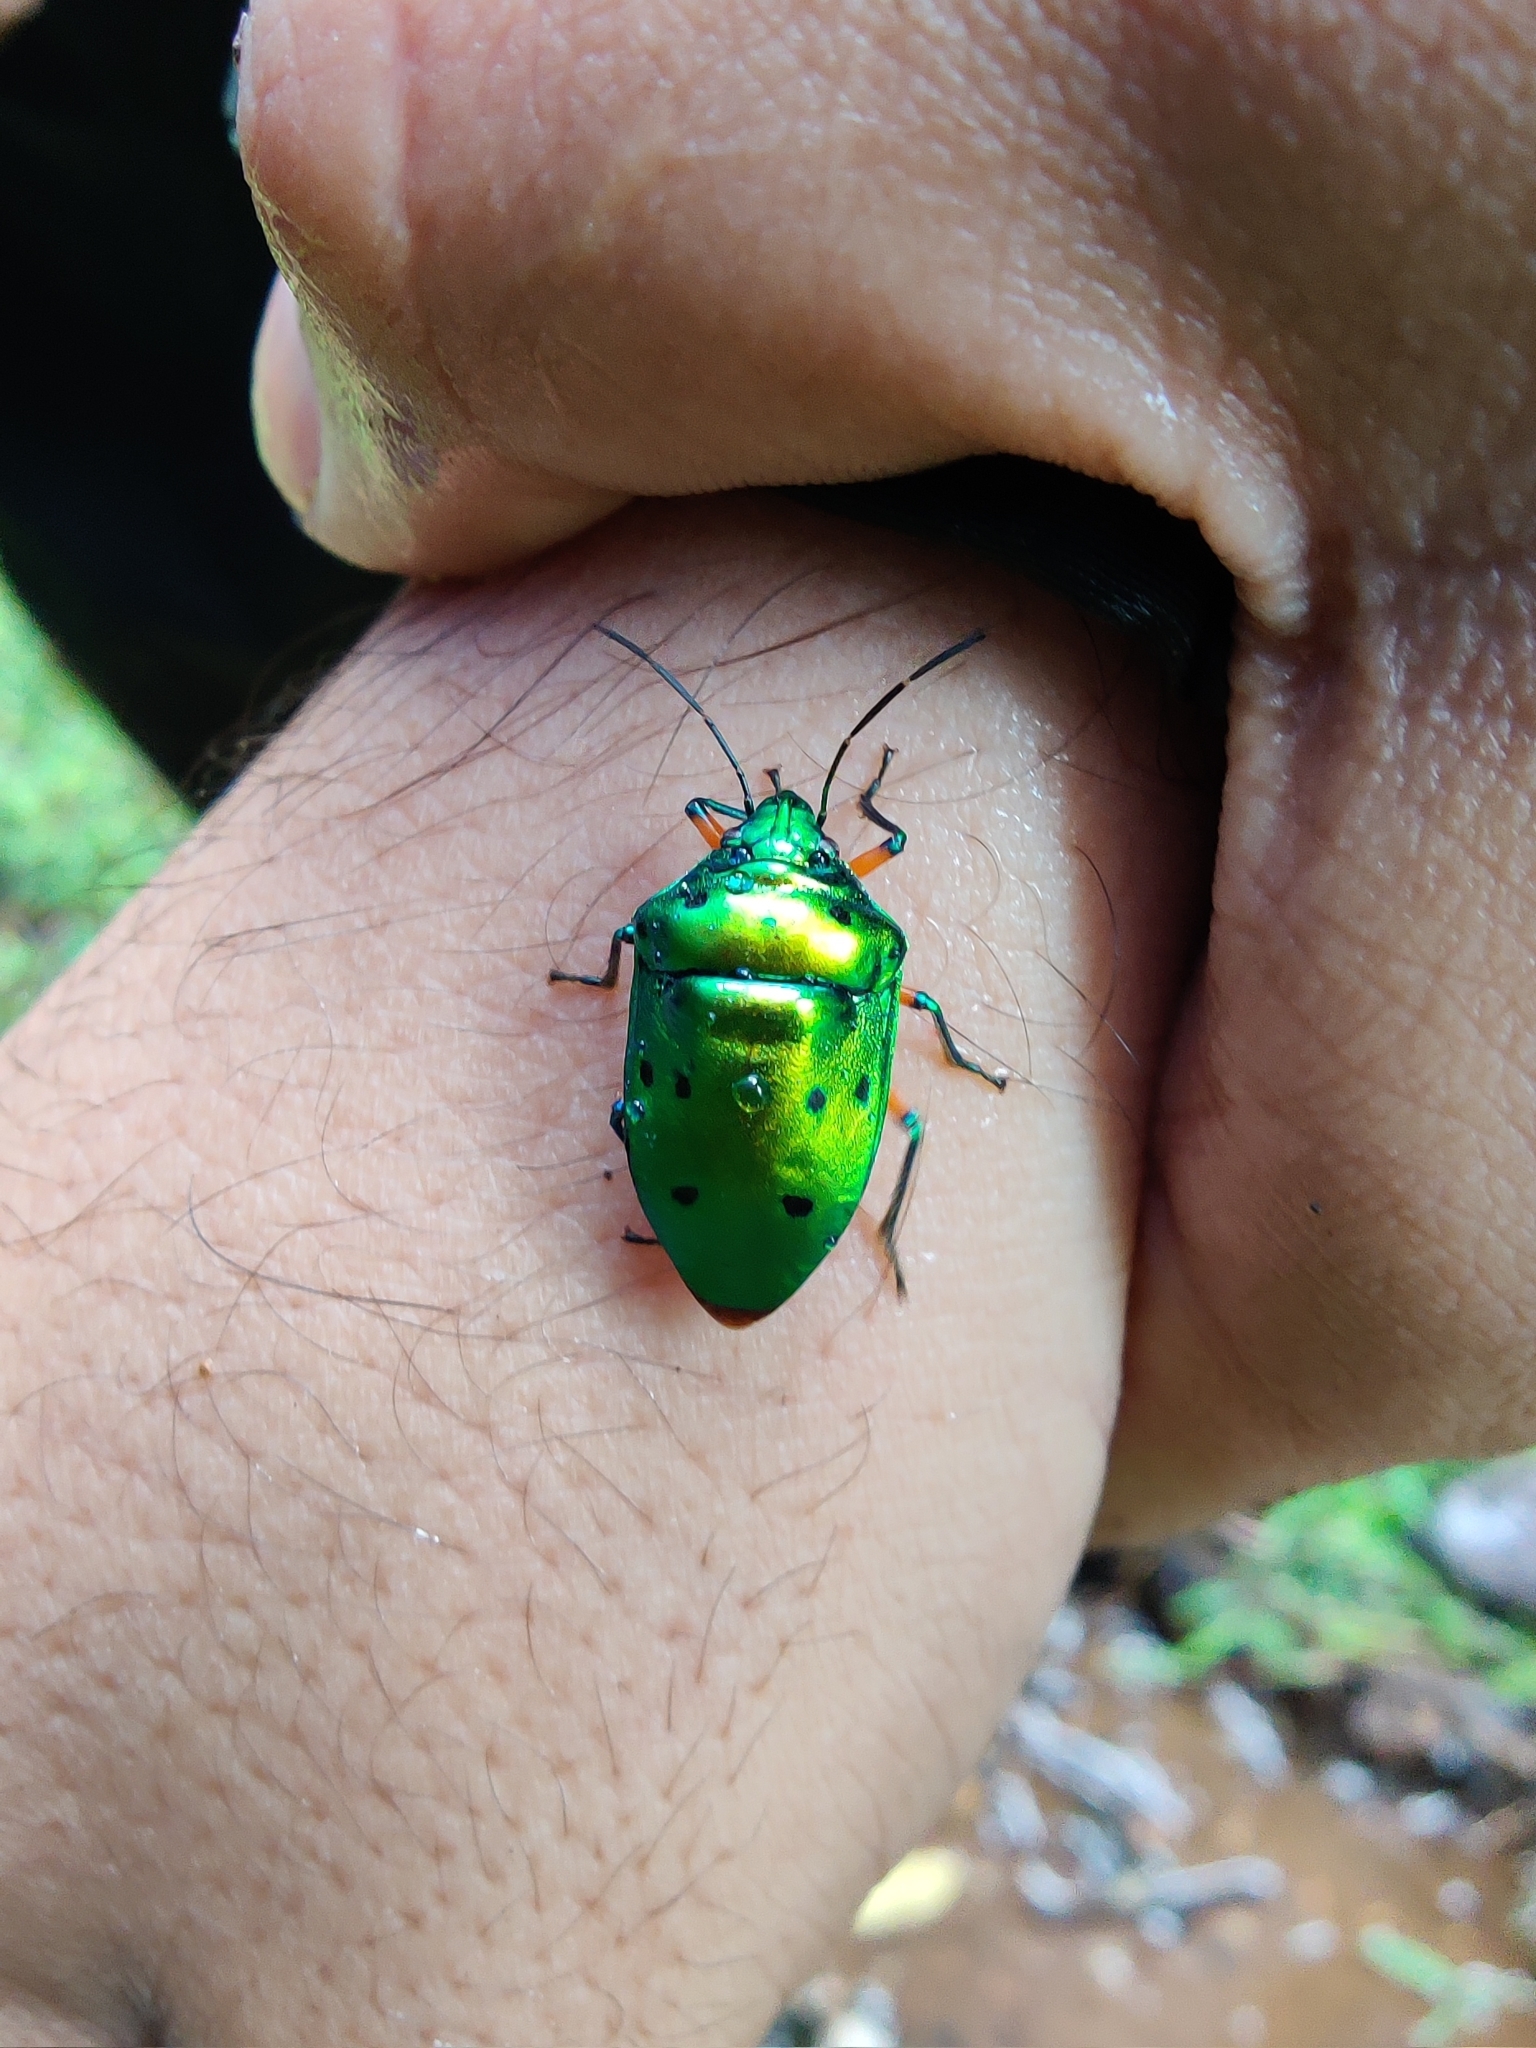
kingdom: Animalia
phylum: Arthropoda
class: Insecta
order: Hemiptera
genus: Graptophara
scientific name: Graptophara anomala
